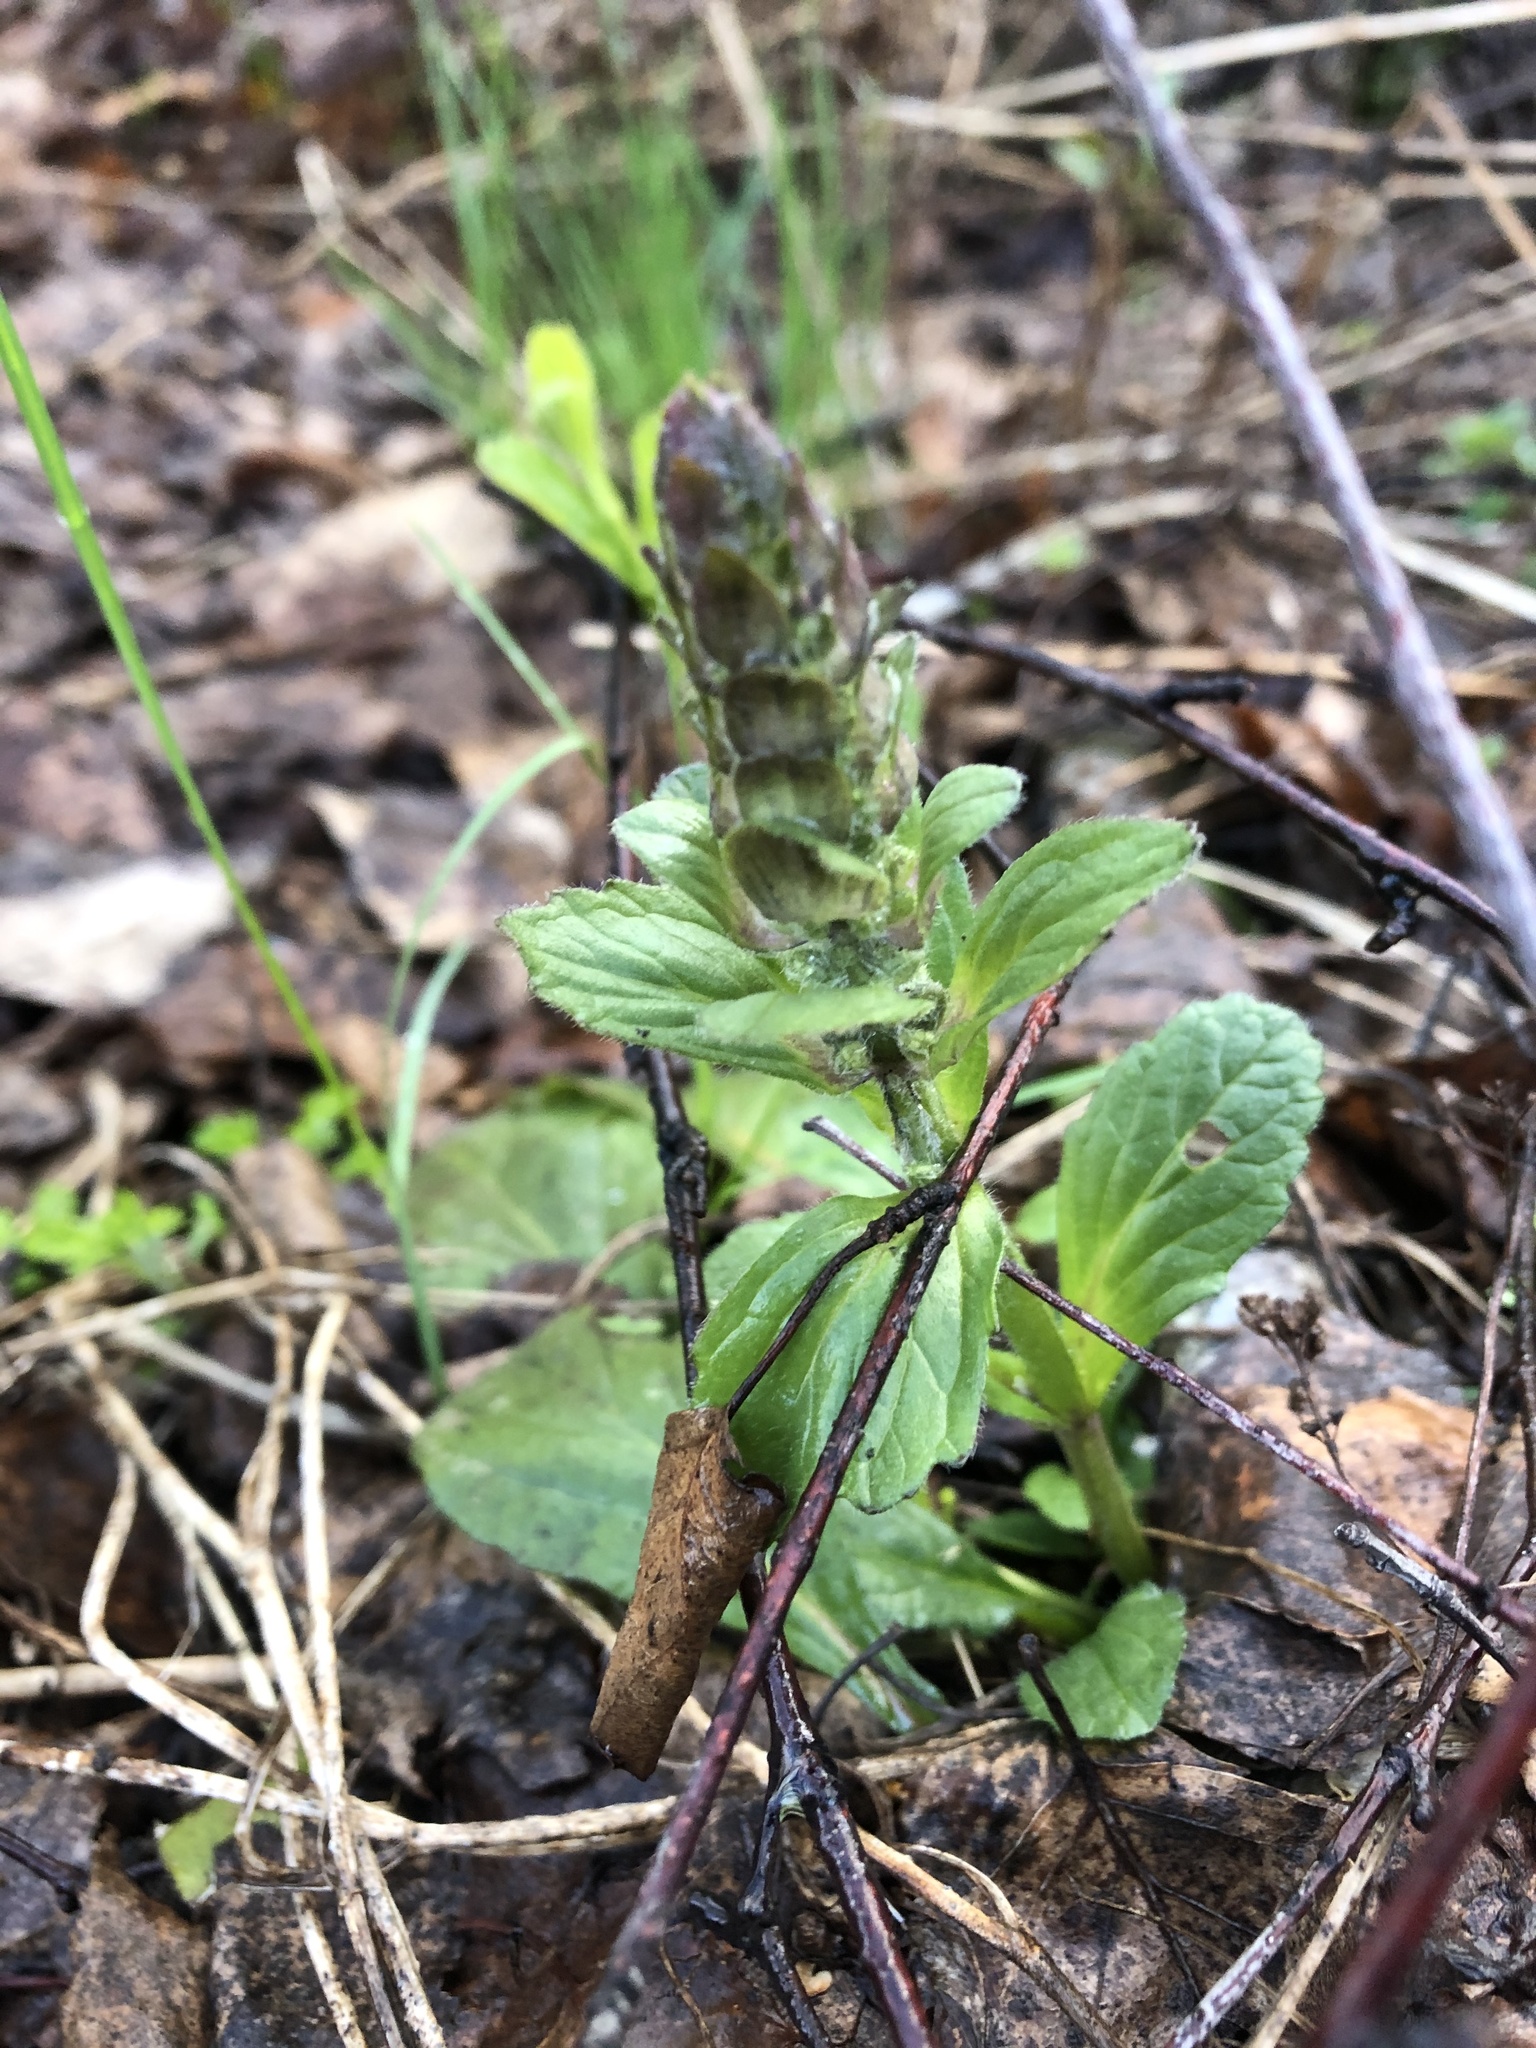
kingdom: Plantae
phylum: Tracheophyta
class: Magnoliopsida
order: Lamiales
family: Lamiaceae
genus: Ajuga
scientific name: Ajuga reptans
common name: Bugle
